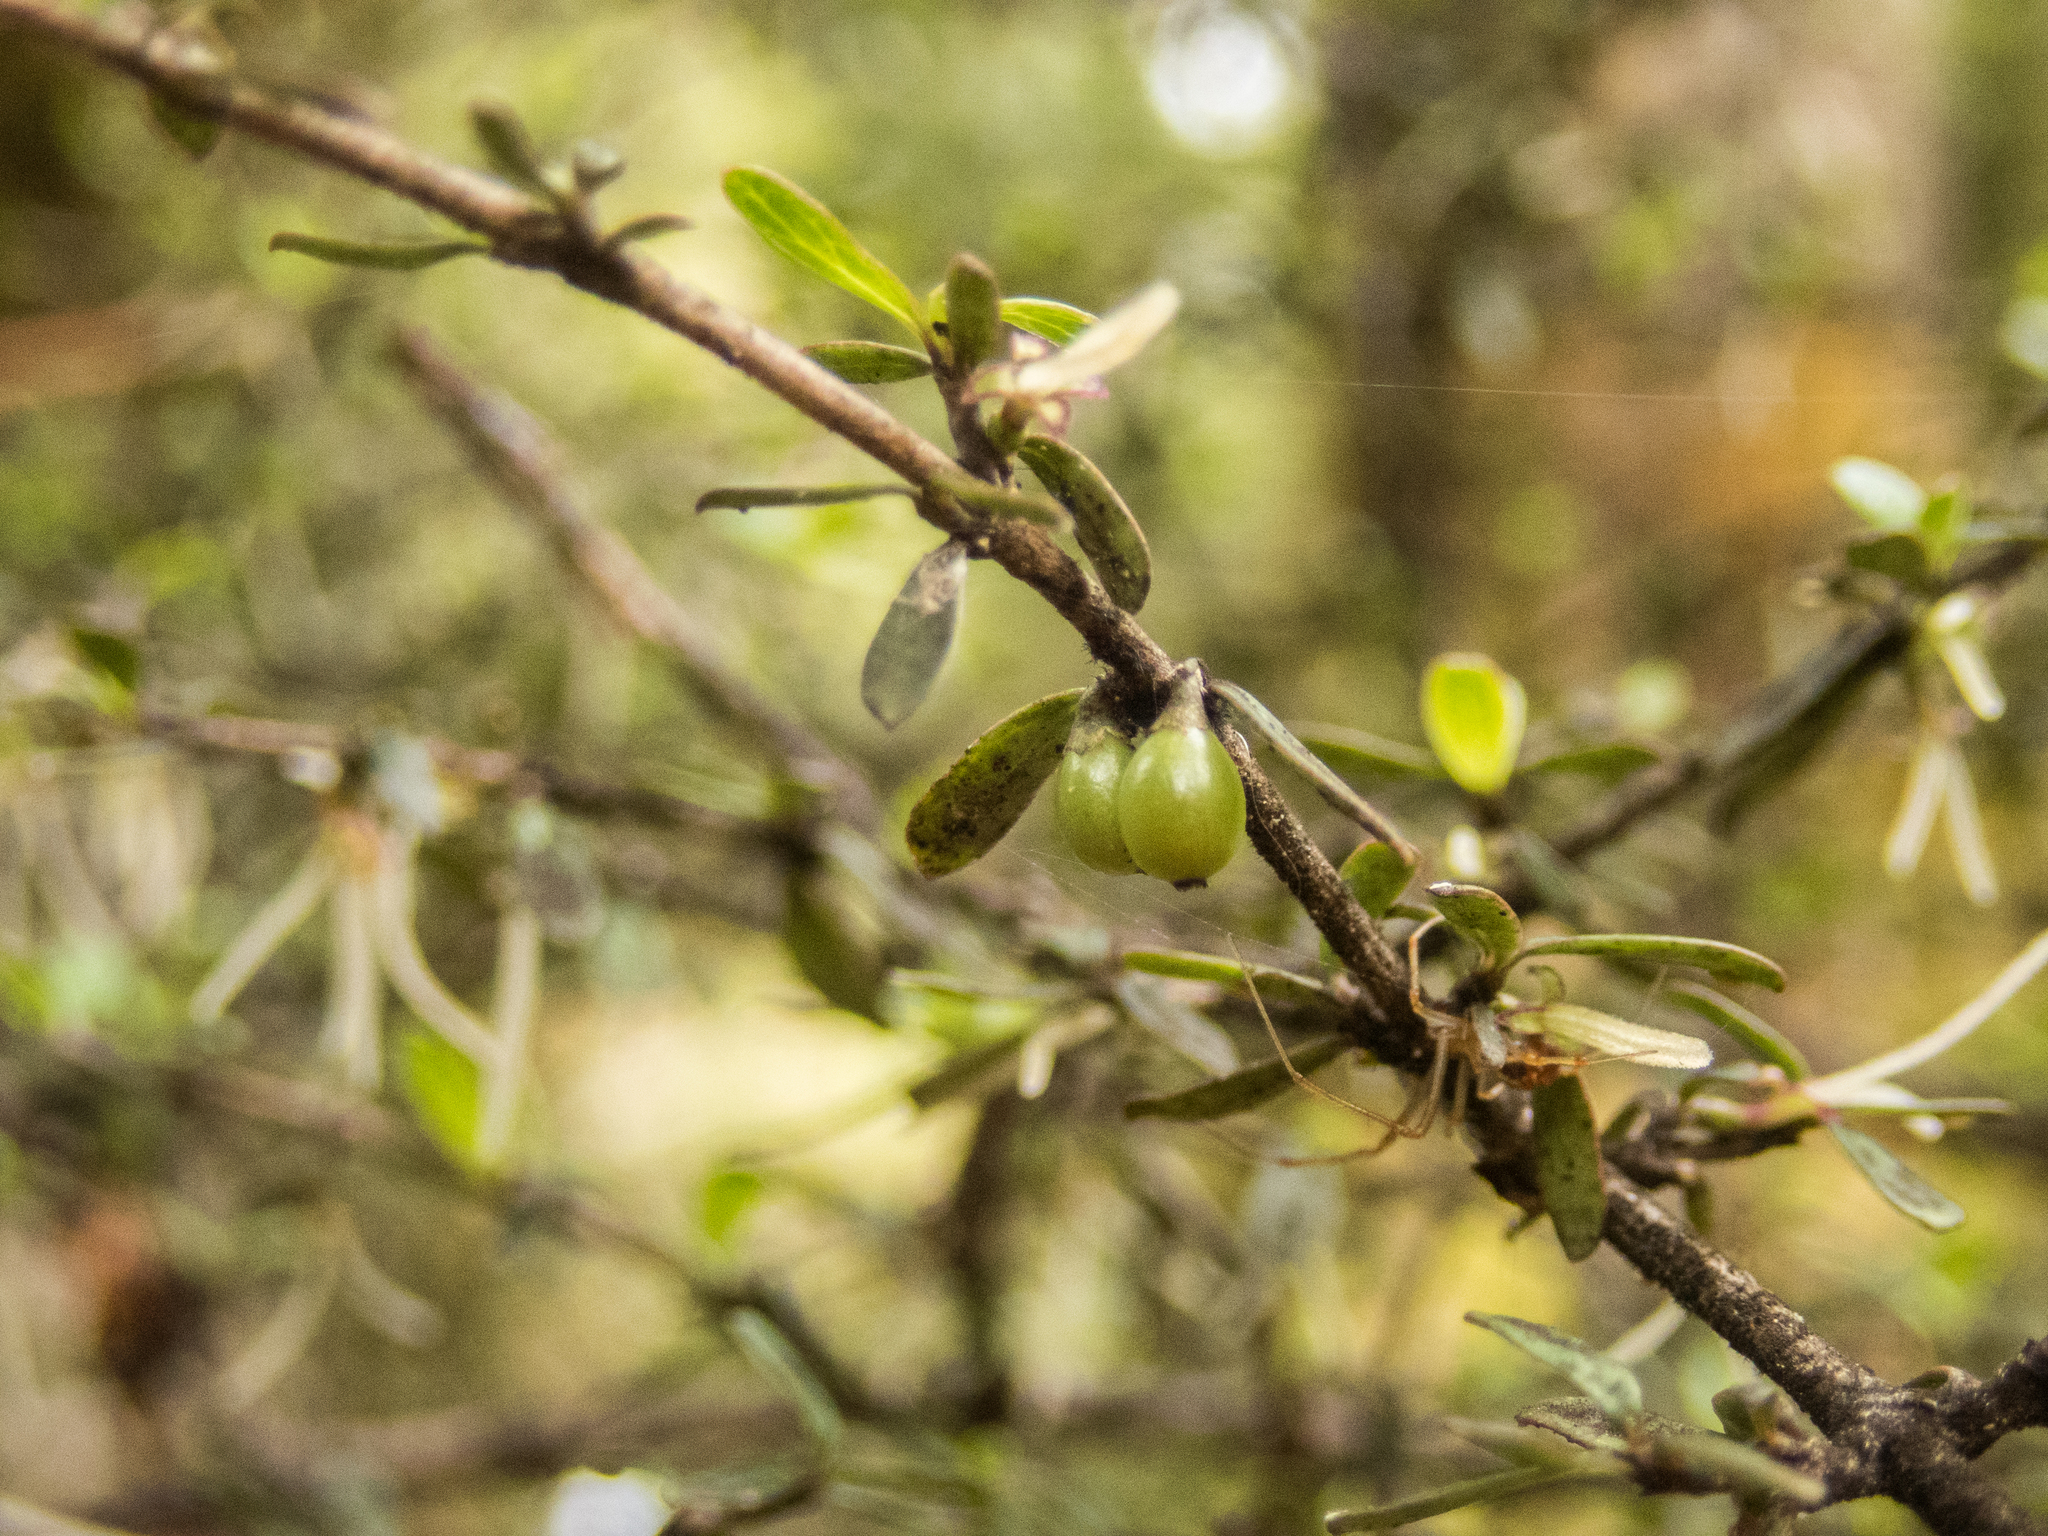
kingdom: Plantae
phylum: Tracheophyta
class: Magnoliopsida
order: Gentianales
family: Rubiaceae
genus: Coprosma
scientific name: Coprosma colensoi
